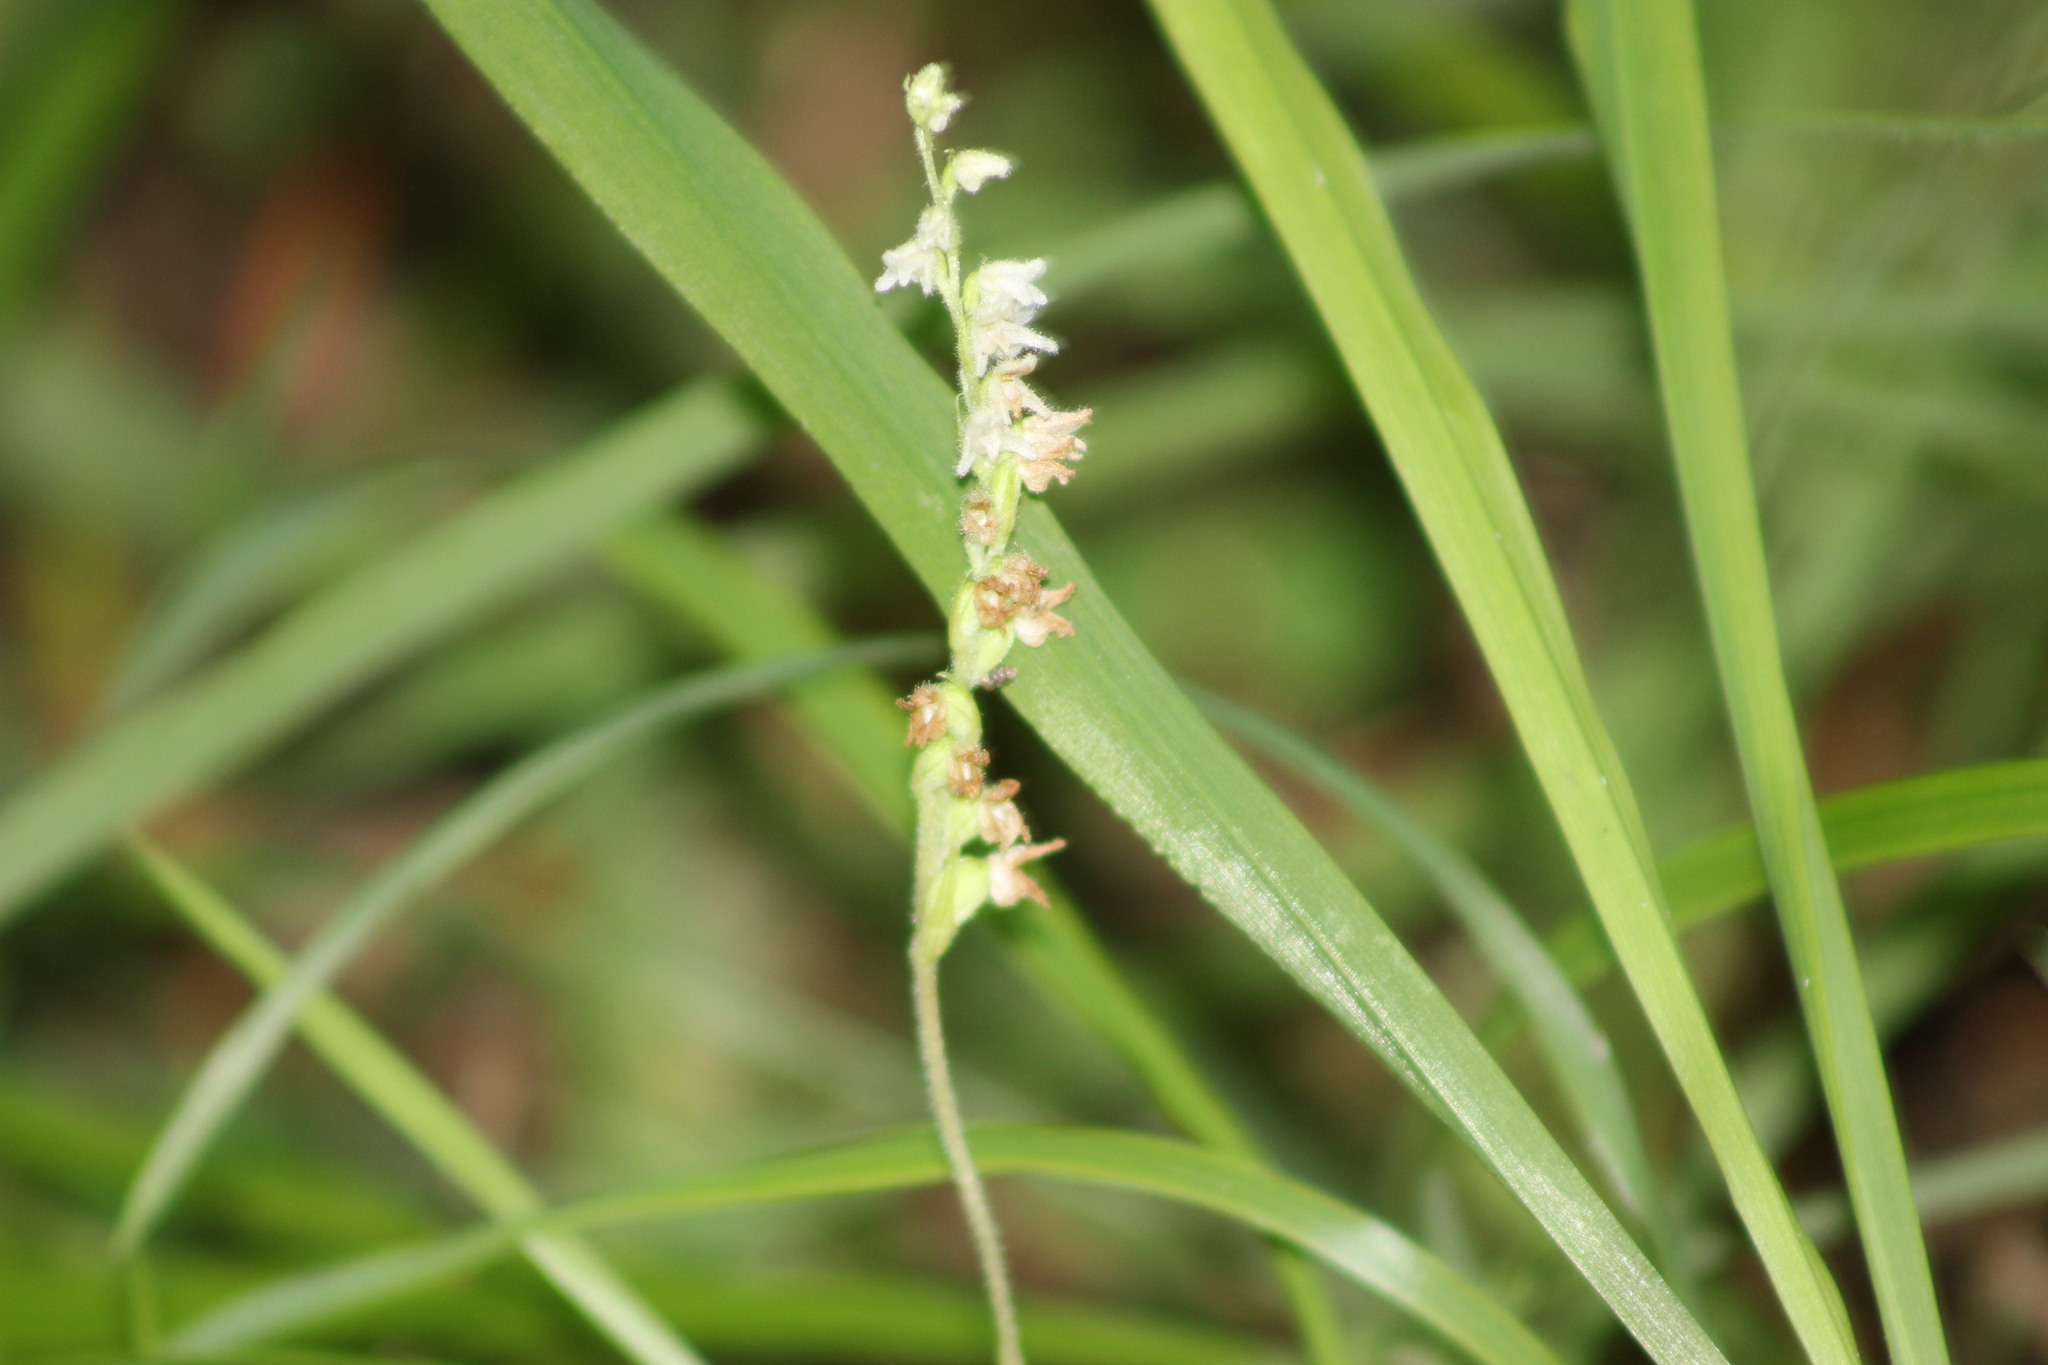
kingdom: Plantae
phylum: Tracheophyta
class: Liliopsida
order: Asparagales
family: Orchidaceae
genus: Goodyera
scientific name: Goodyera repens
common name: Creeping lady's-tresses
